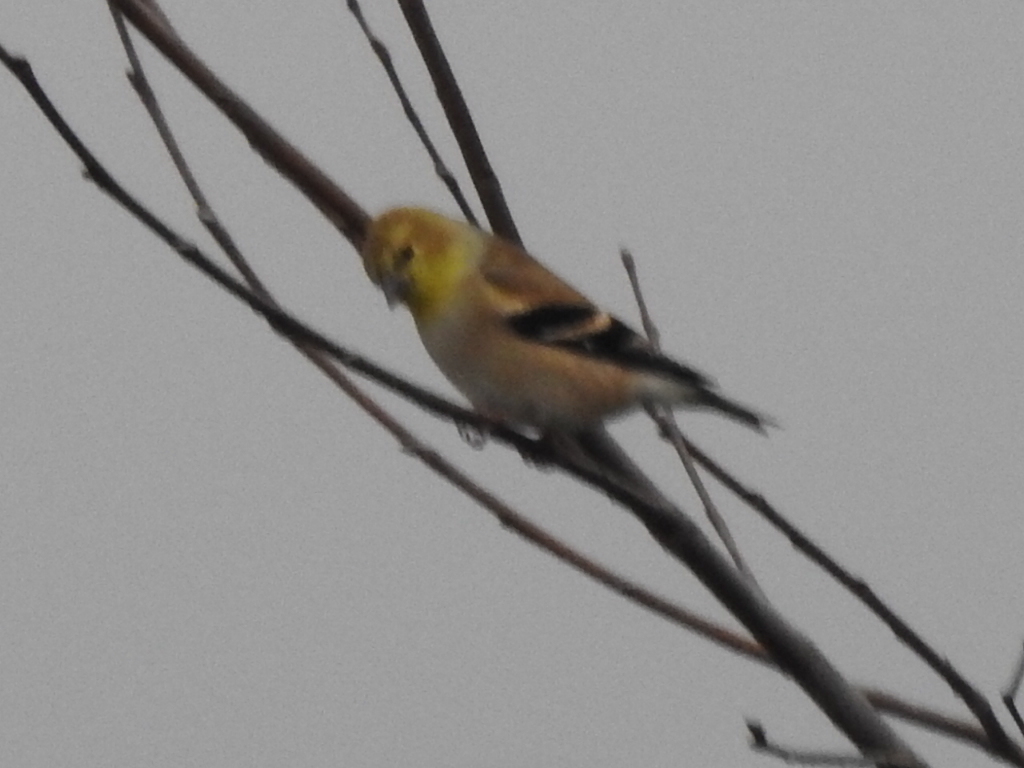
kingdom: Animalia
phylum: Chordata
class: Aves
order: Passeriformes
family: Fringillidae
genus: Spinus
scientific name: Spinus tristis
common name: American goldfinch
